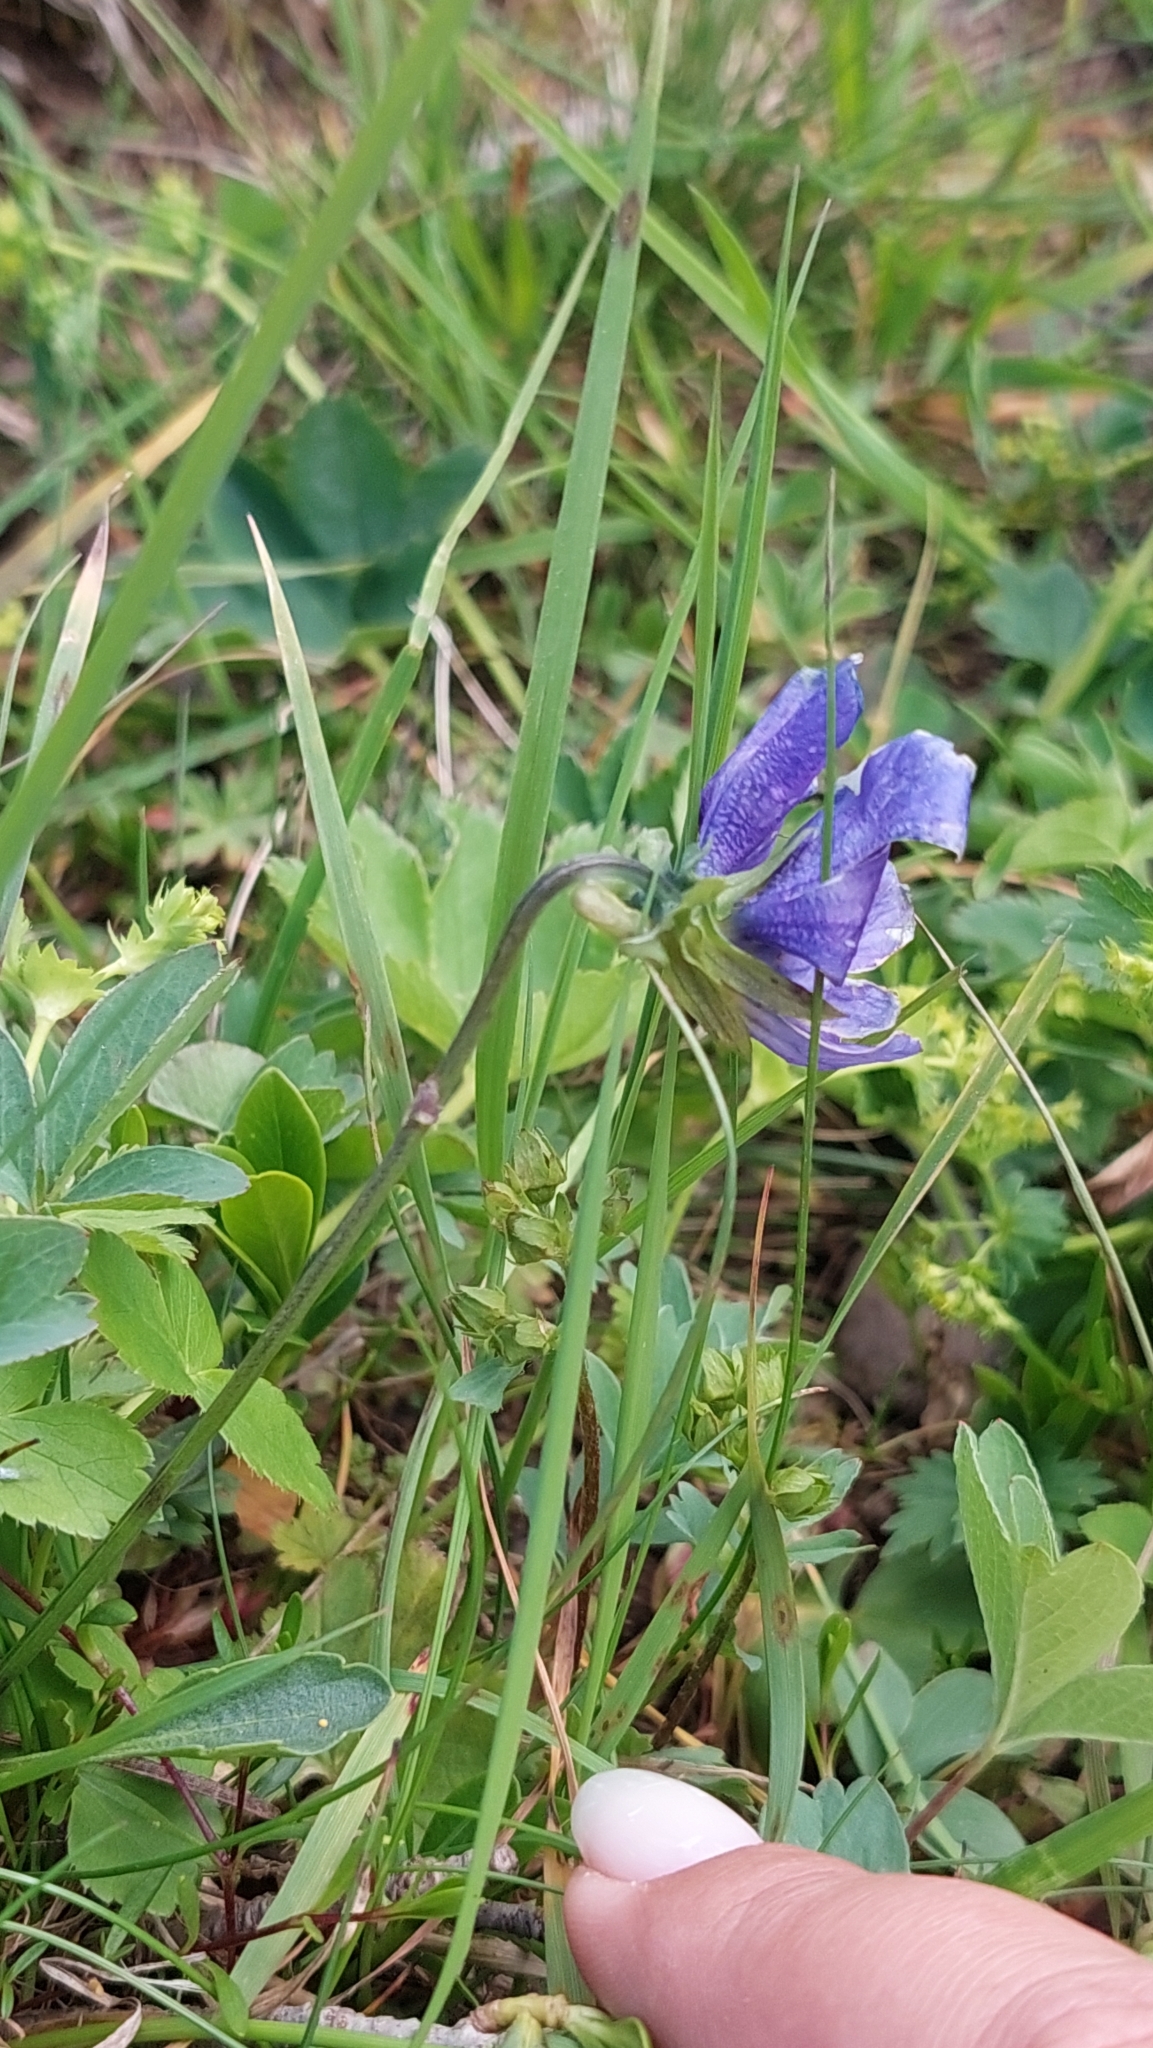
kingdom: Plantae
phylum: Tracheophyta
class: Magnoliopsida
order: Malpighiales
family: Violaceae
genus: Viola
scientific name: Viola oreades
